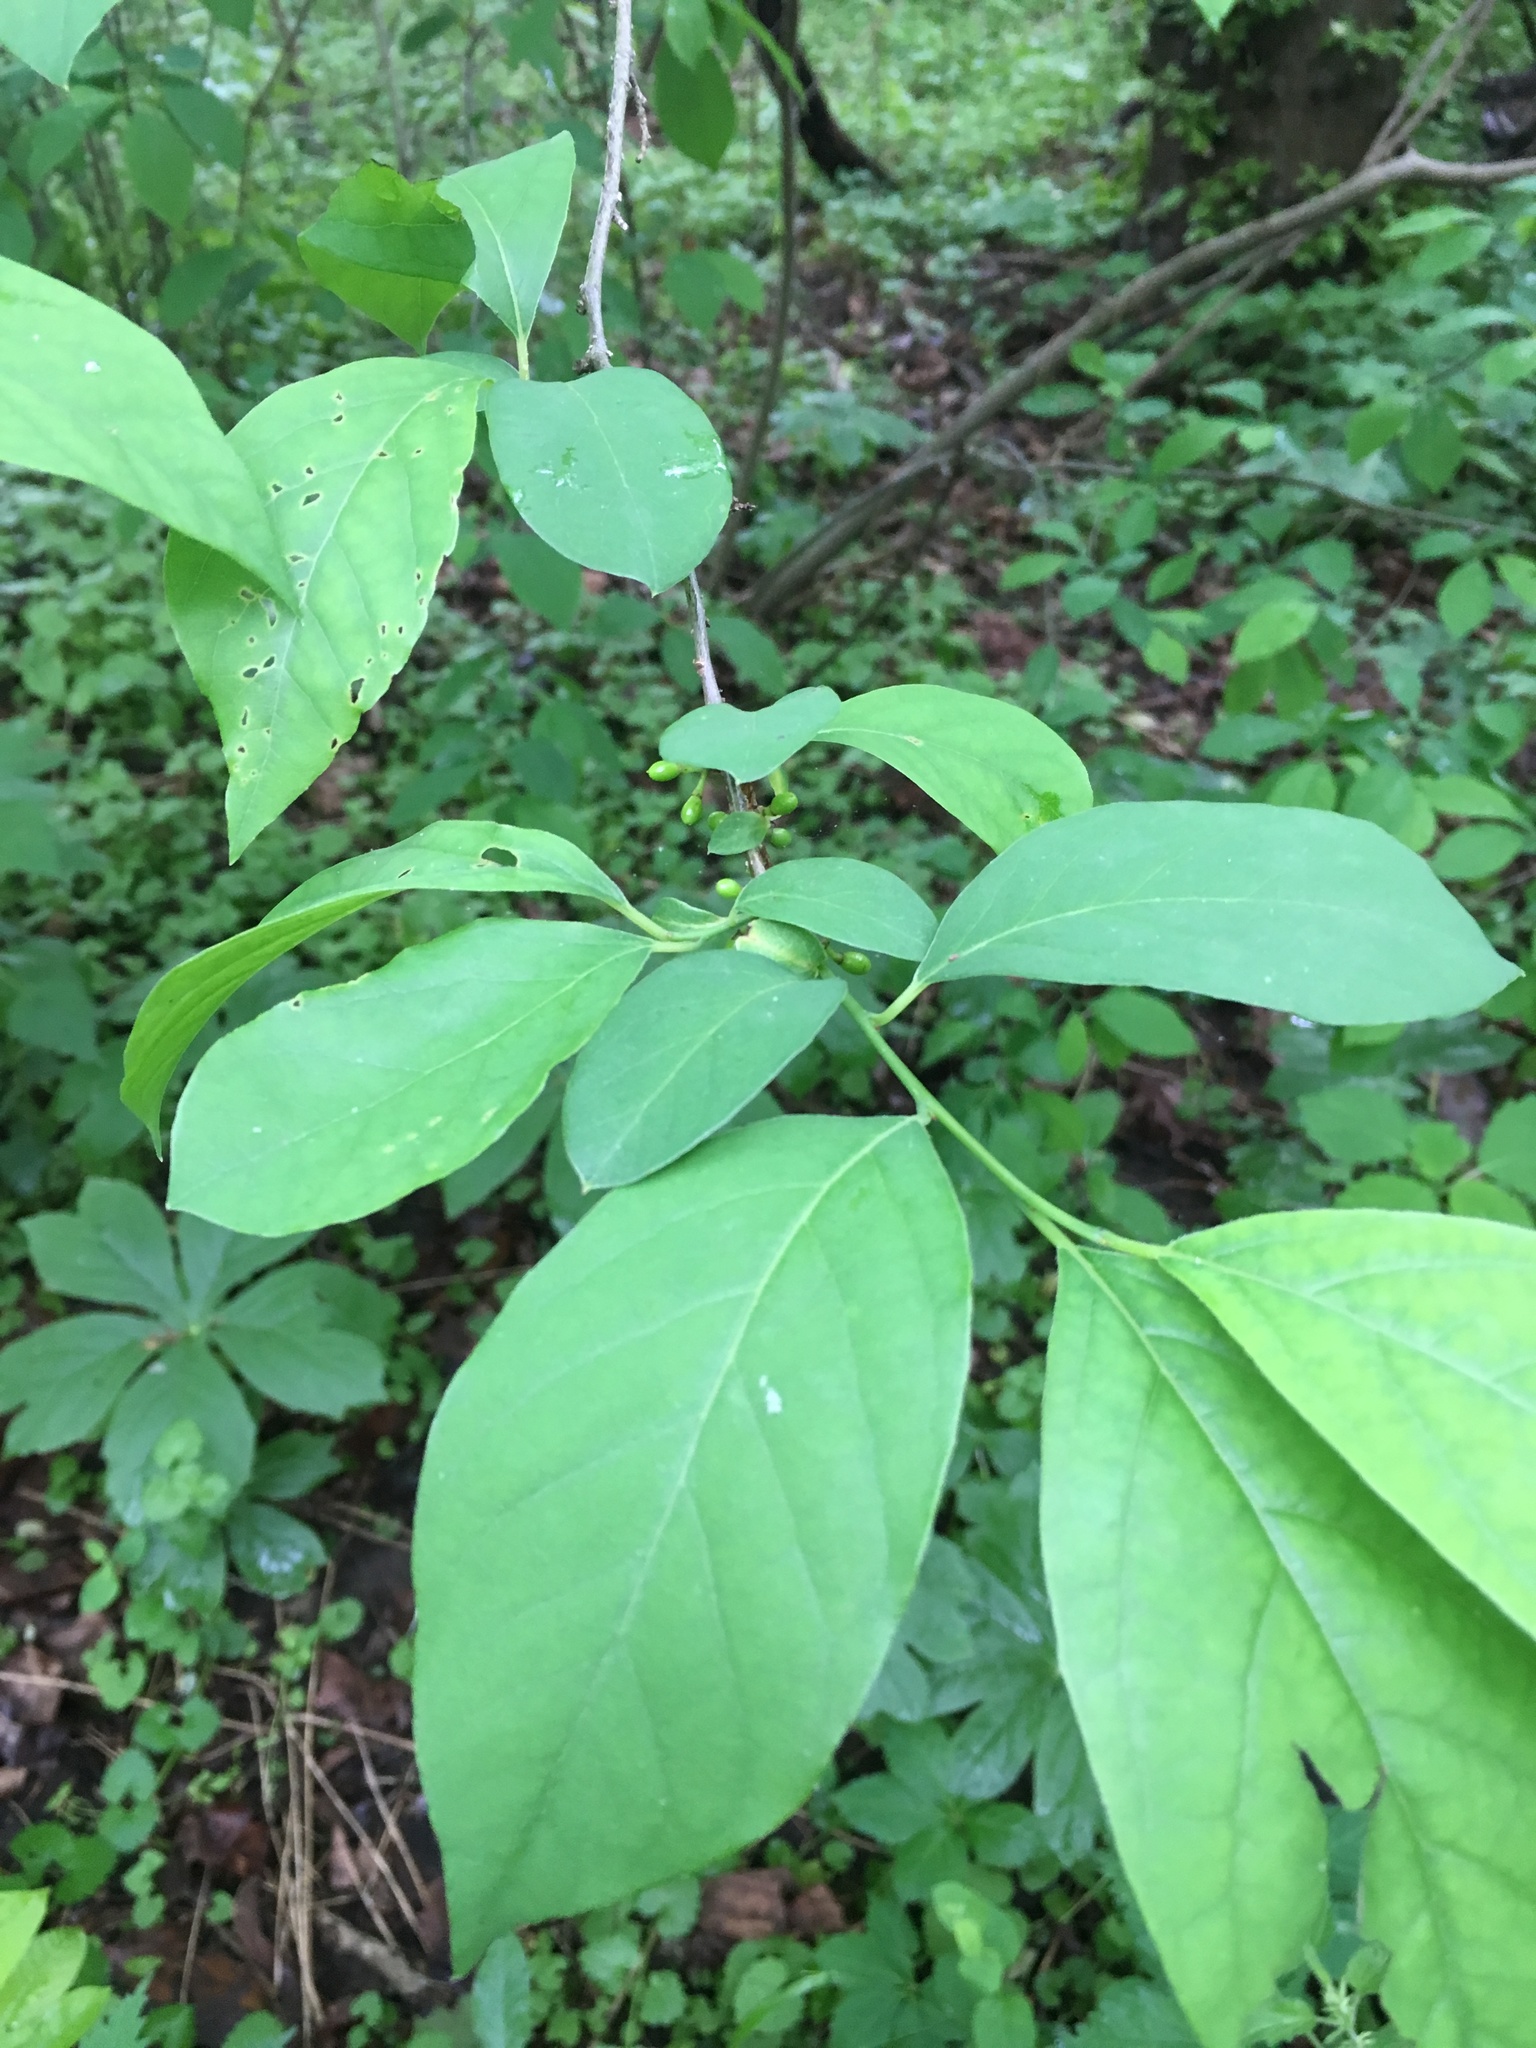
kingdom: Plantae
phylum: Tracheophyta
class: Magnoliopsida
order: Laurales
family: Lauraceae
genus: Lindera
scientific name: Lindera benzoin
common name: Spicebush
